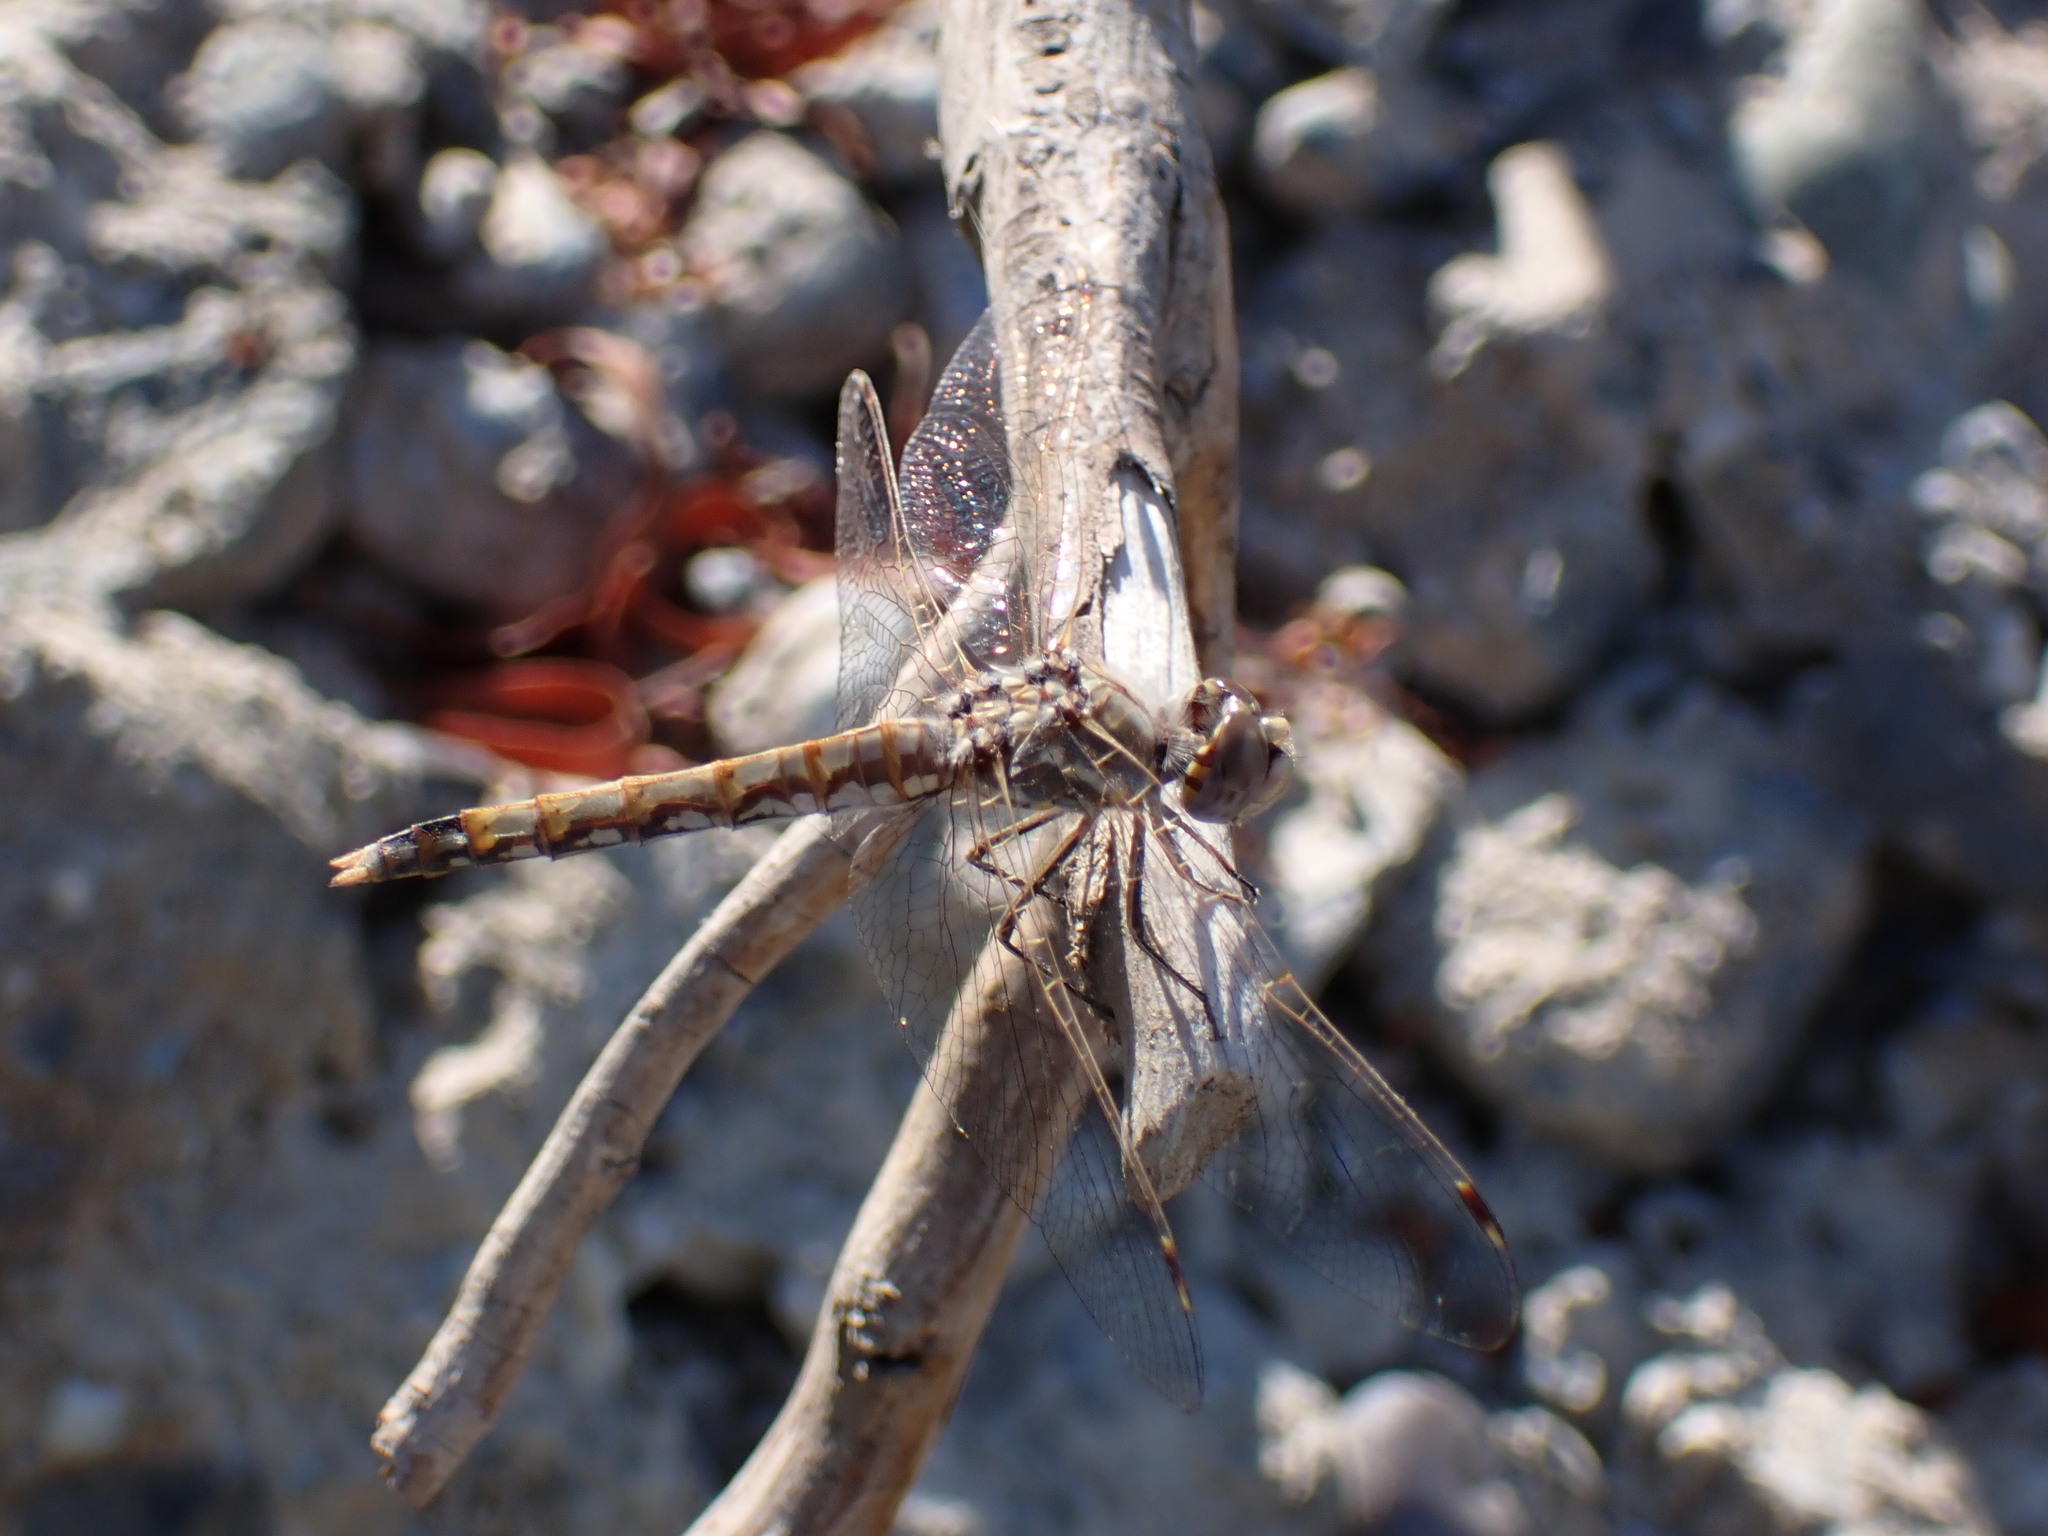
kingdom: Animalia
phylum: Arthropoda
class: Insecta
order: Odonata
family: Libellulidae
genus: Sympetrum
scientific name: Sympetrum corruptum
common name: Variegated meadowhawk
